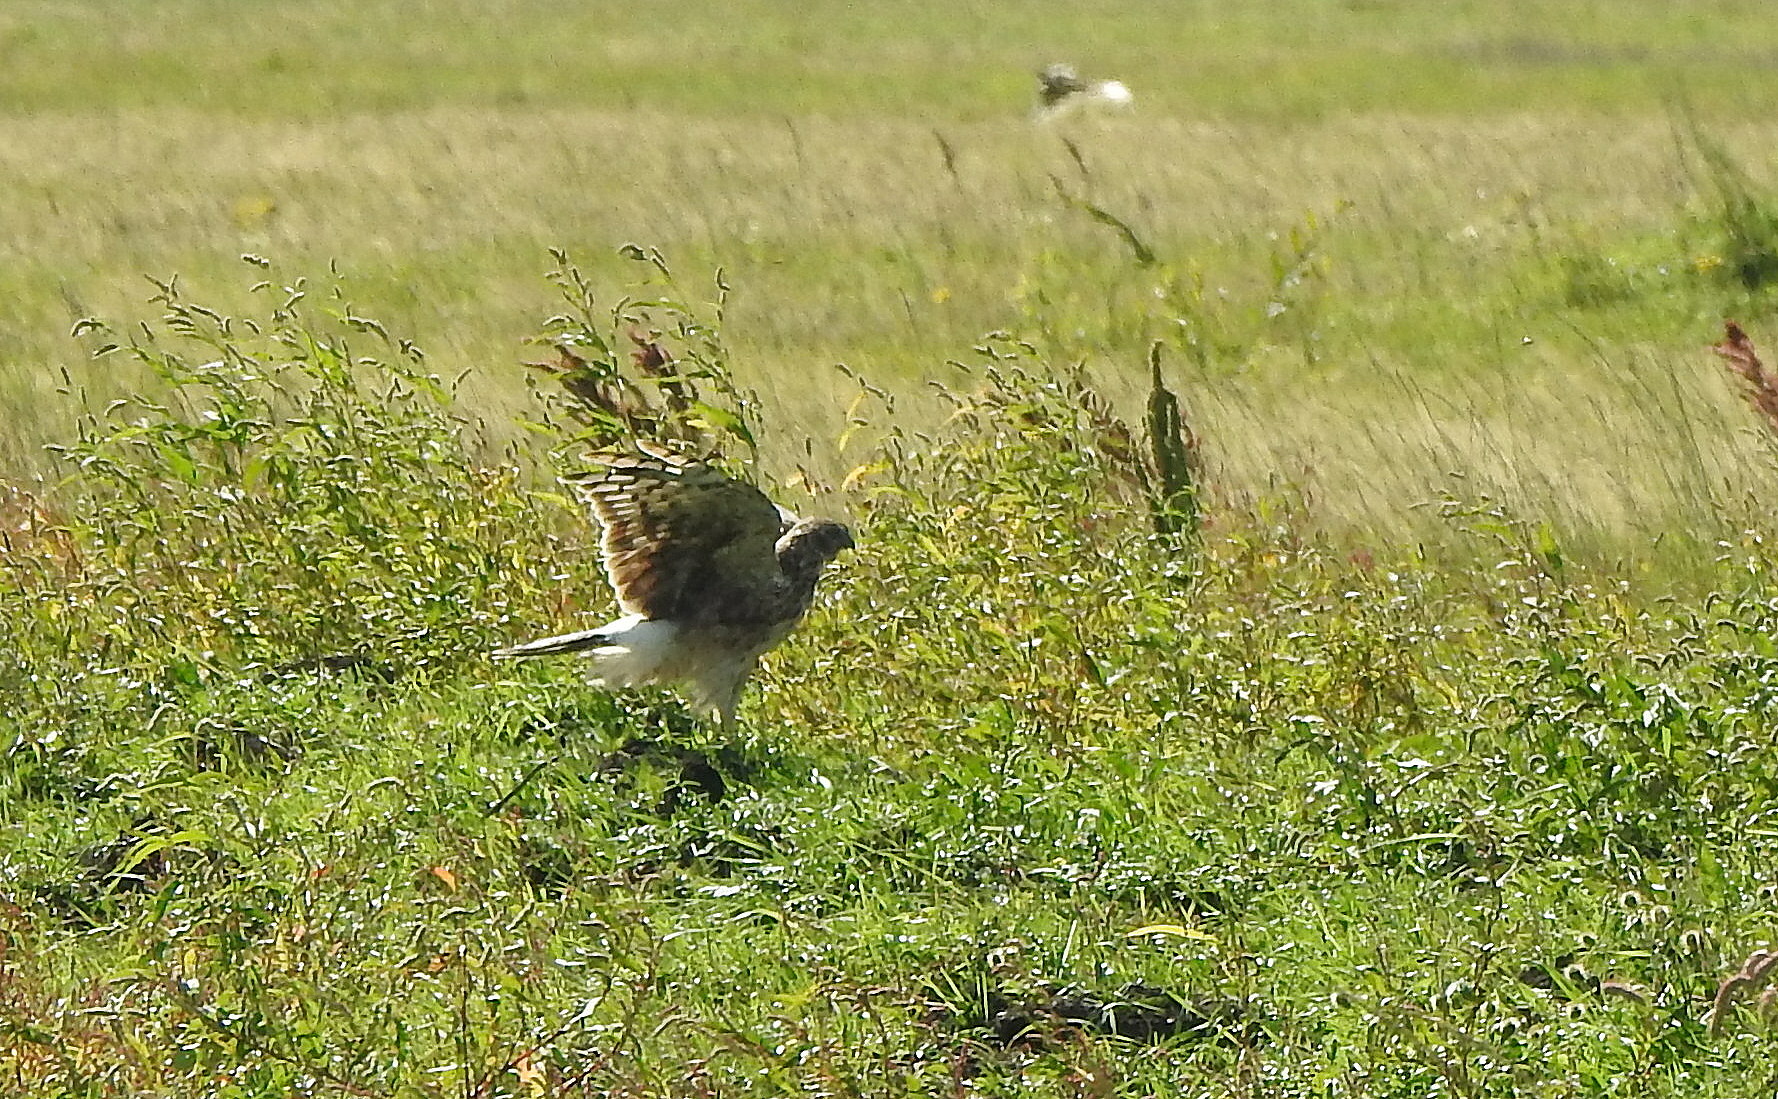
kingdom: Animalia
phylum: Chordata
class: Aves
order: Accipitriformes
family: Accipitridae
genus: Circus
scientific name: Circus cyaneus
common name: Hen harrier
